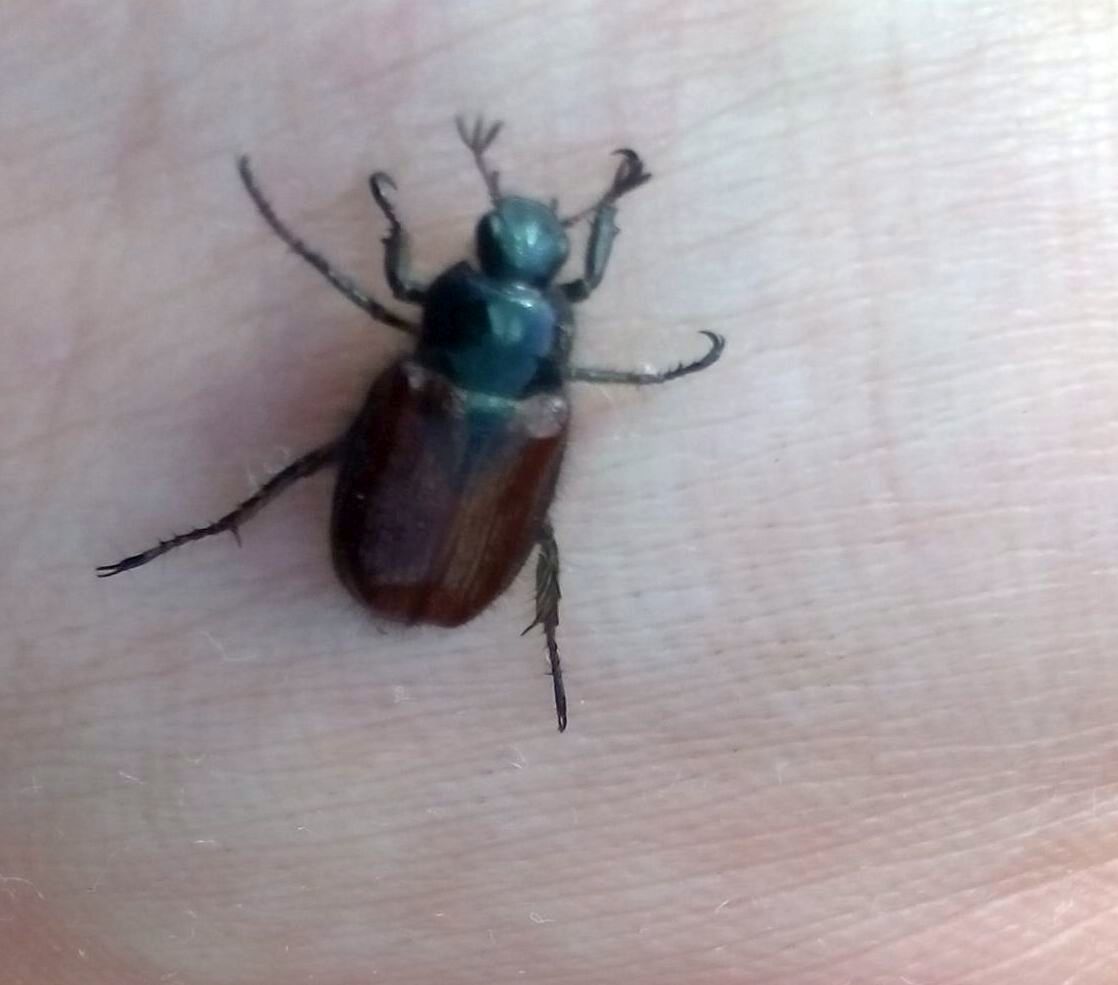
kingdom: Animalia
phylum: Arthropoda
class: Insecta
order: Coleoptera
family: Scarabaeidae
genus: Phyllopertha
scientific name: Phyllopertha horticola
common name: Garden chafer
